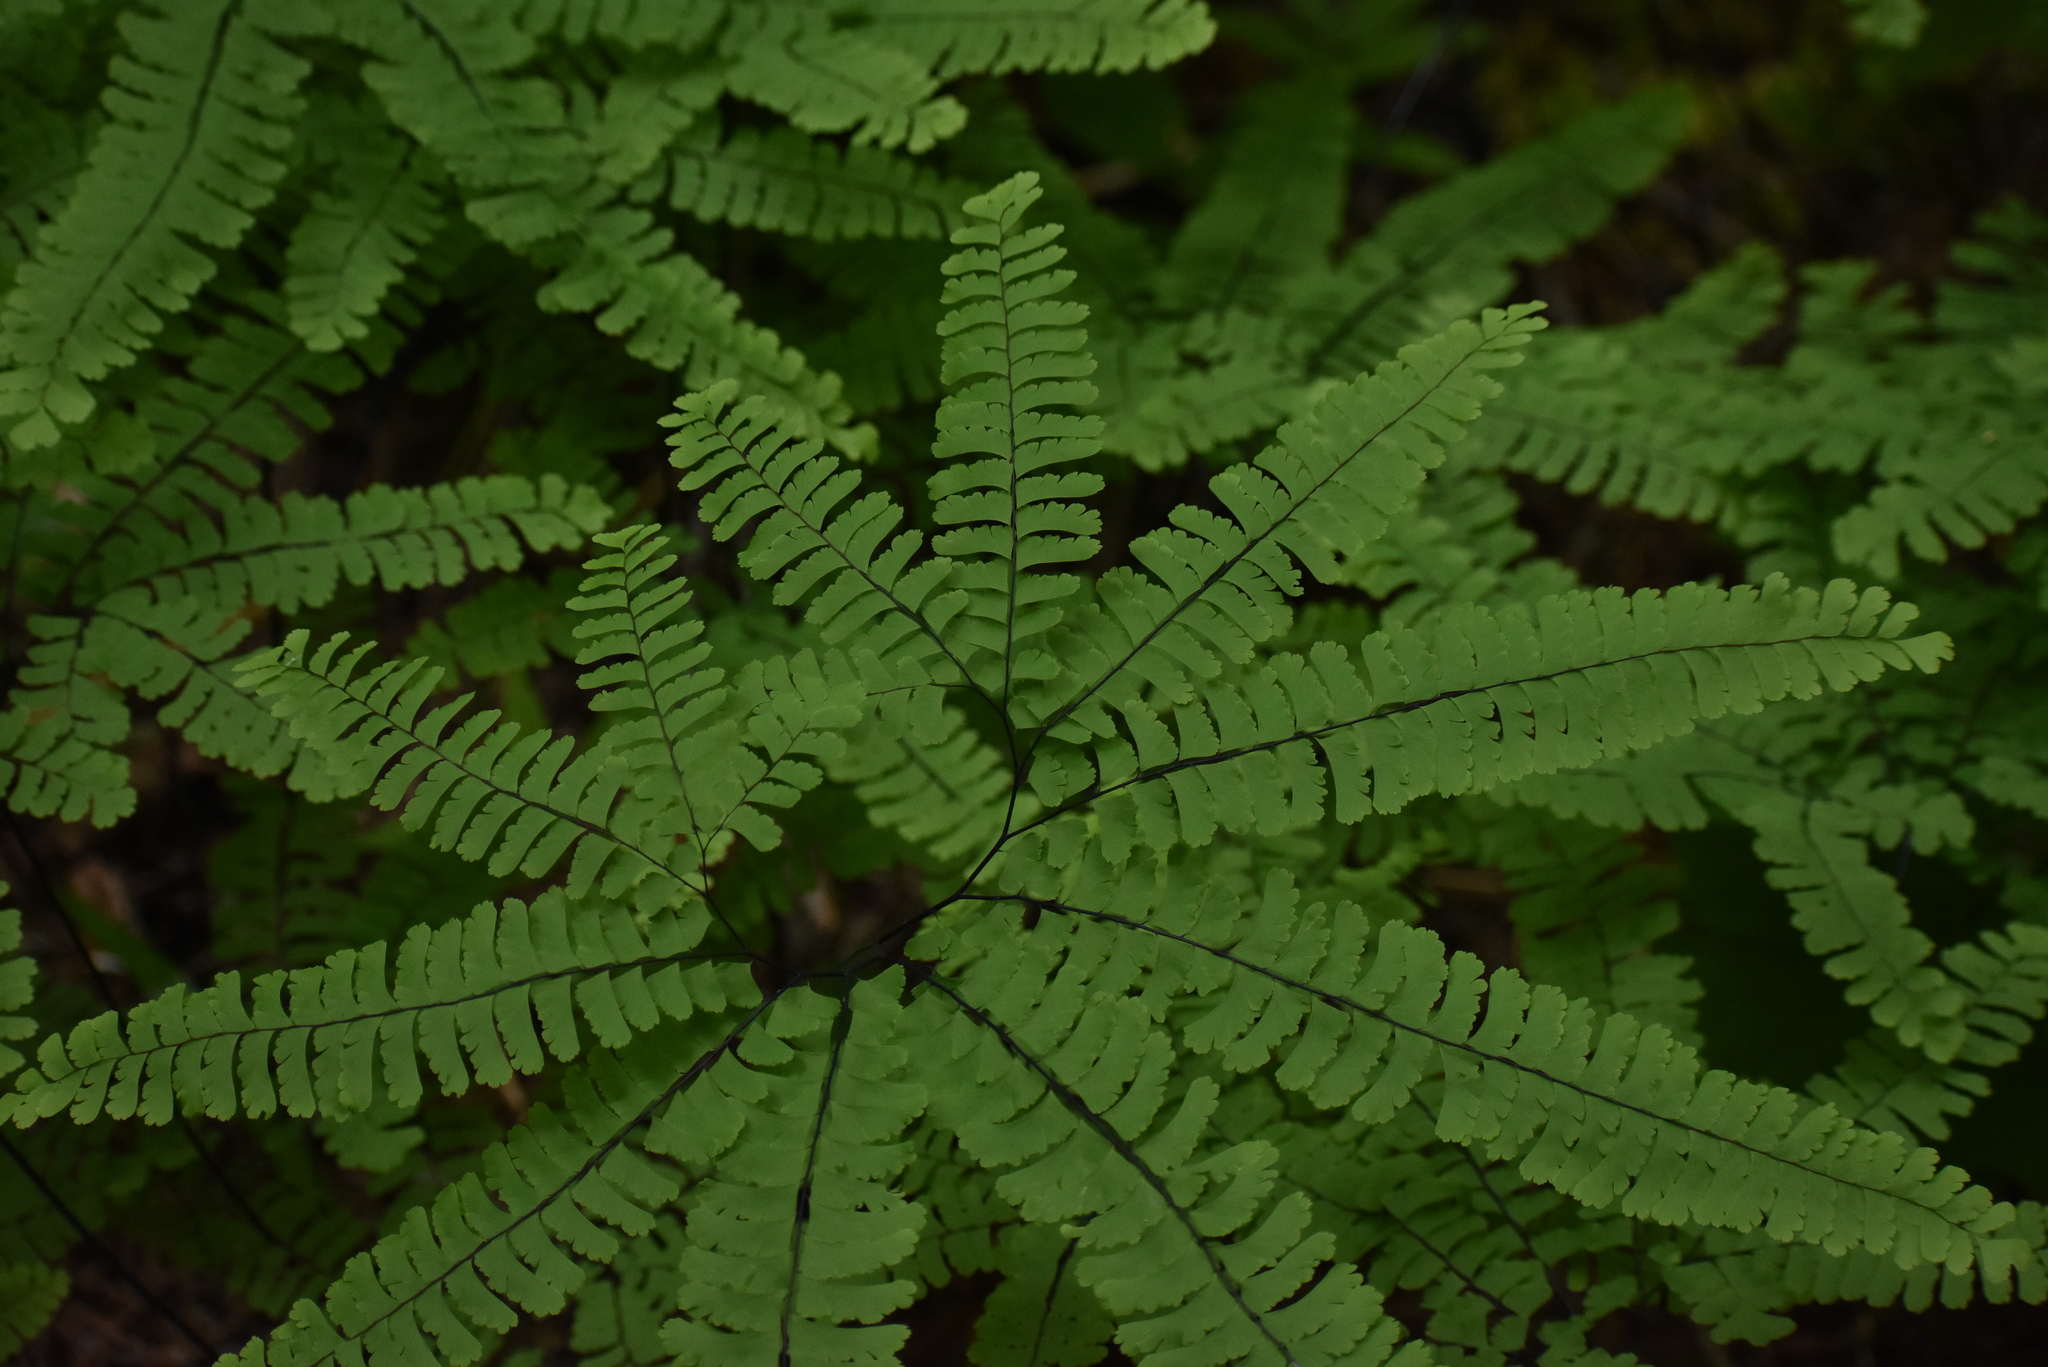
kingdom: Plantae
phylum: Tracheophyta
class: Polypodiopsida
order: Polypodiales
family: Pteridaceae
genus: Adiantum
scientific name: Adiantum aleuticum
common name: Aleutian maidenhair fern
